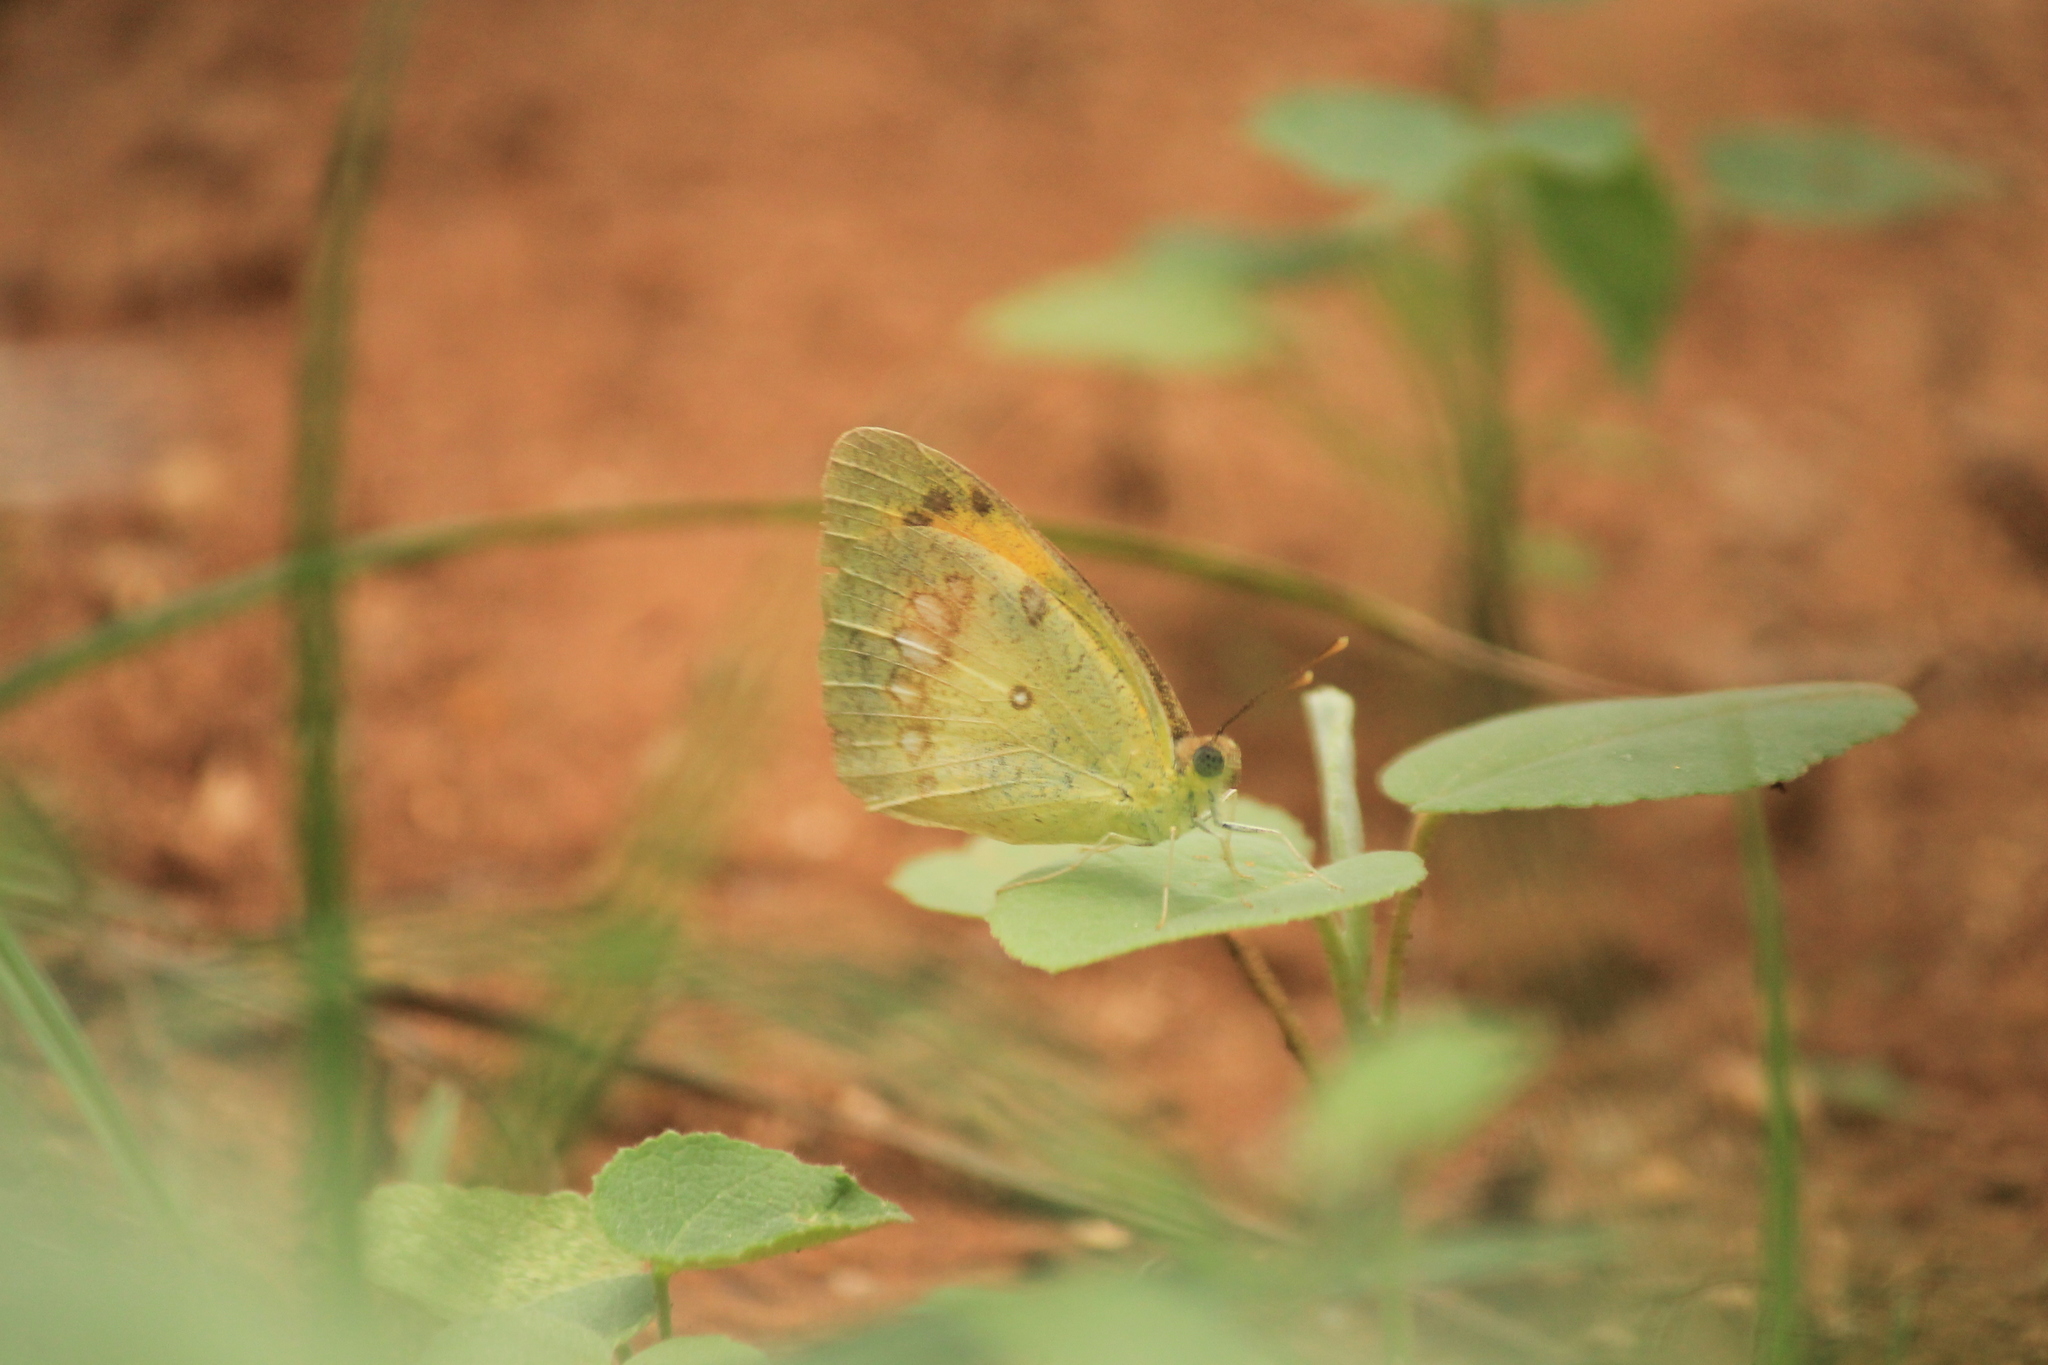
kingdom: Animalia
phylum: Arthropoda
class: Insecta
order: Lepidoptera
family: Pieridae
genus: Ixias
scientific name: Ixias pyrene
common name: Yellow orange tip
